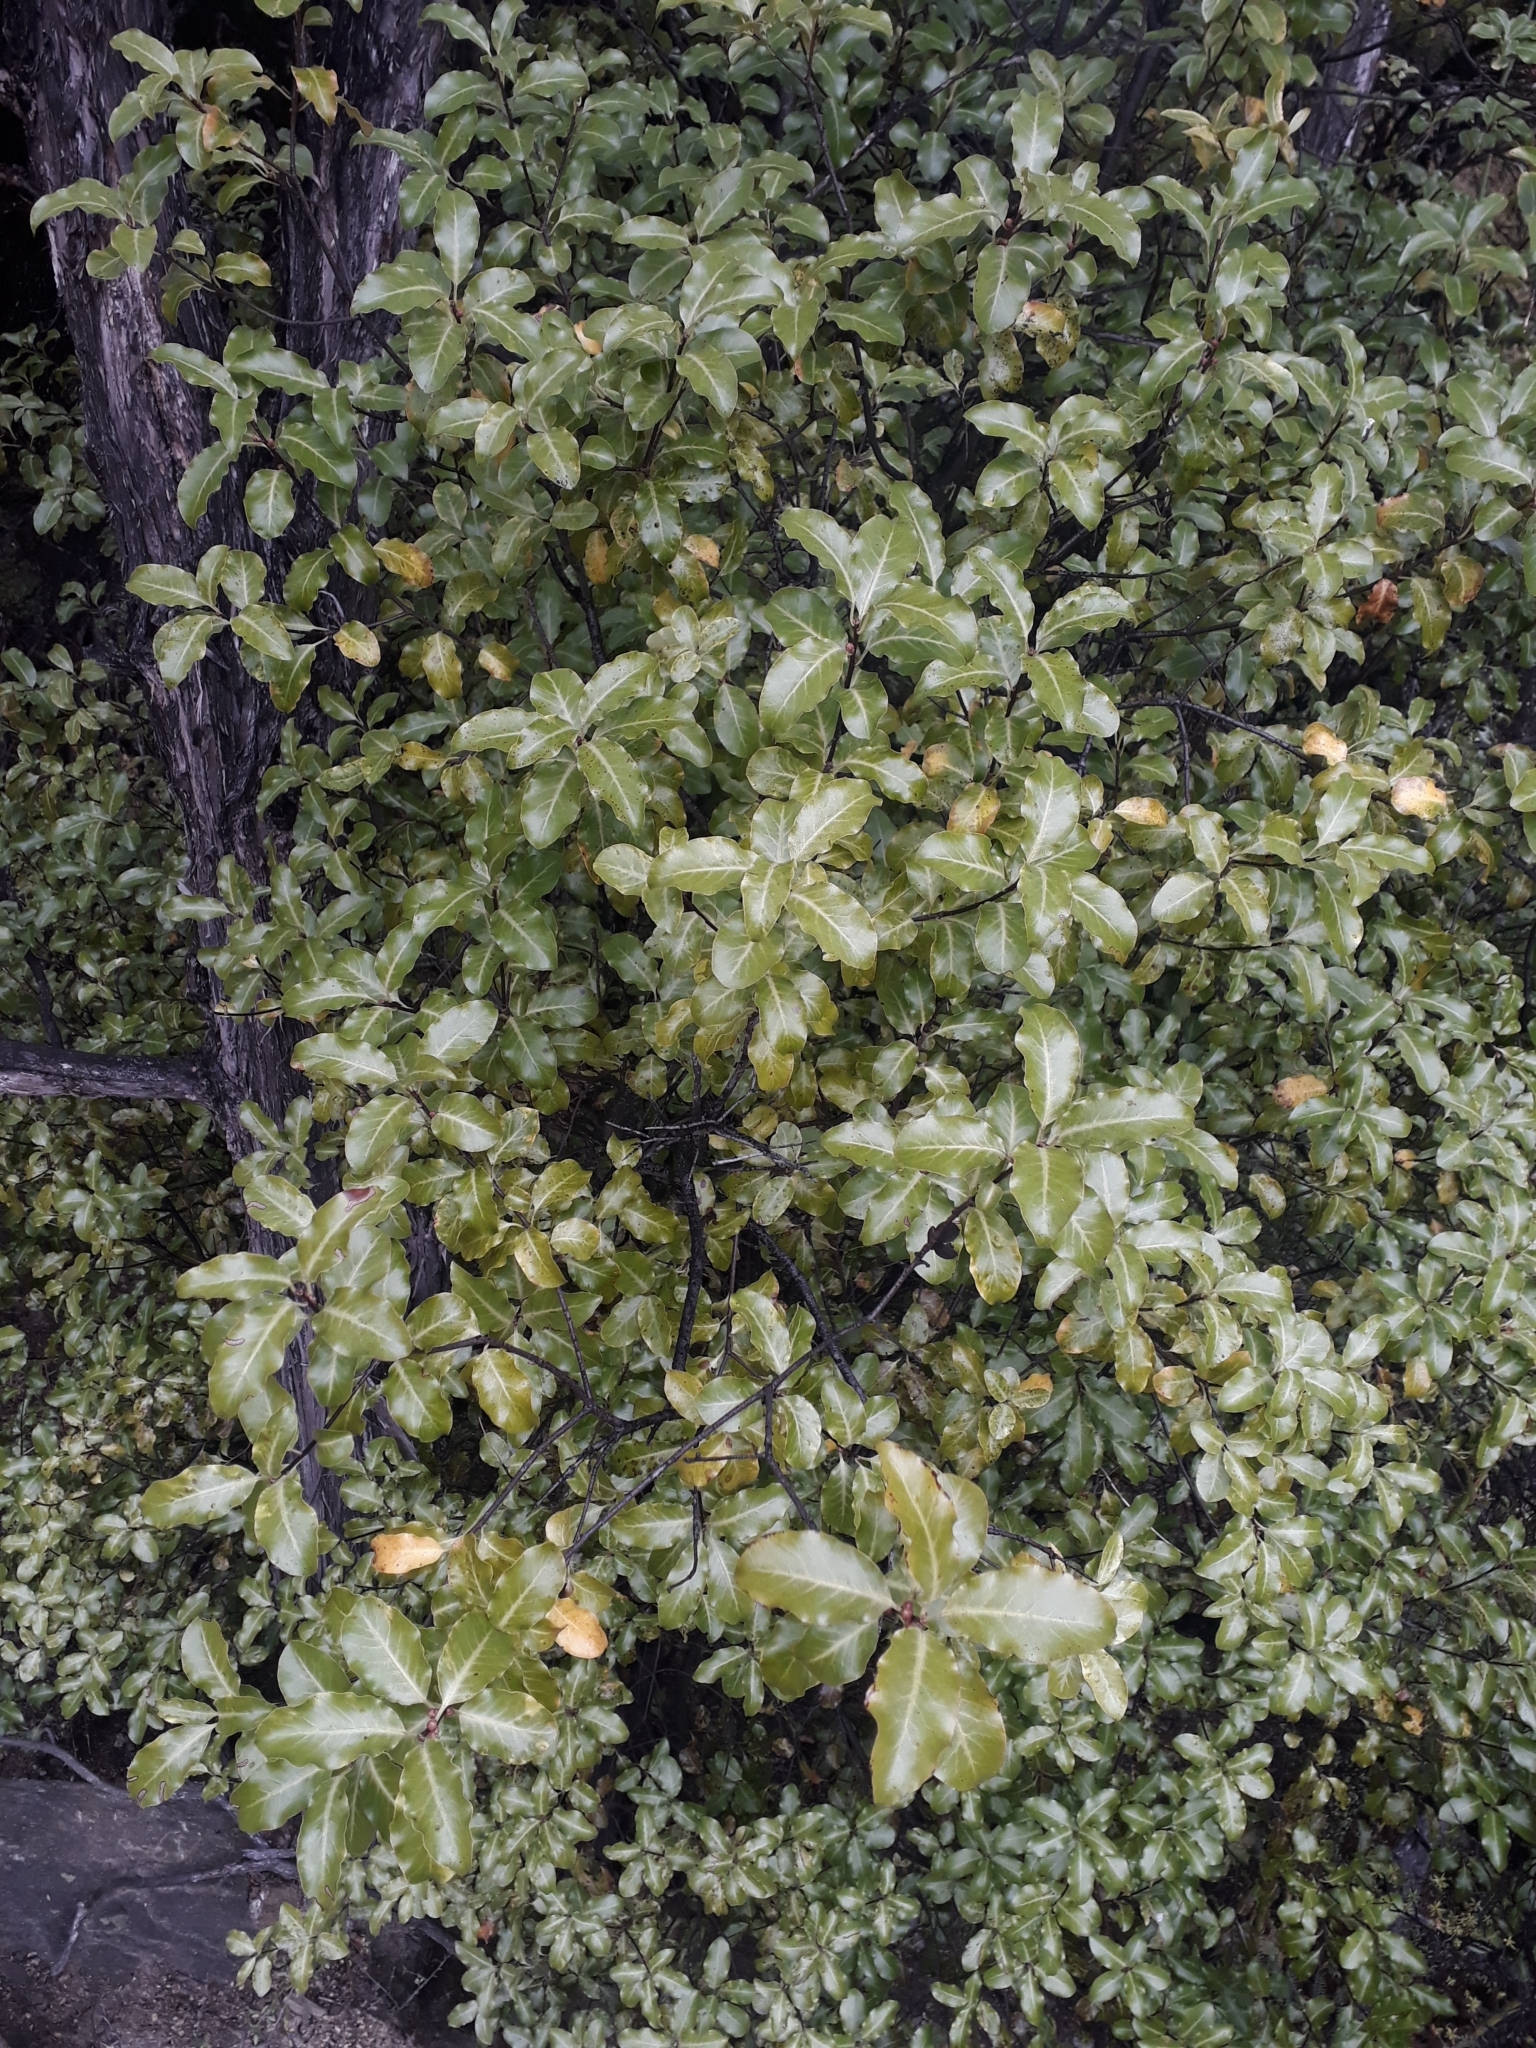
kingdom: Plantae
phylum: Tracheophyta
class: Magnoliopsida
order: Apiales
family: Pittosporaceae
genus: Pittosporum
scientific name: Pittosporum tenuifolium
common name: Kohuhu
